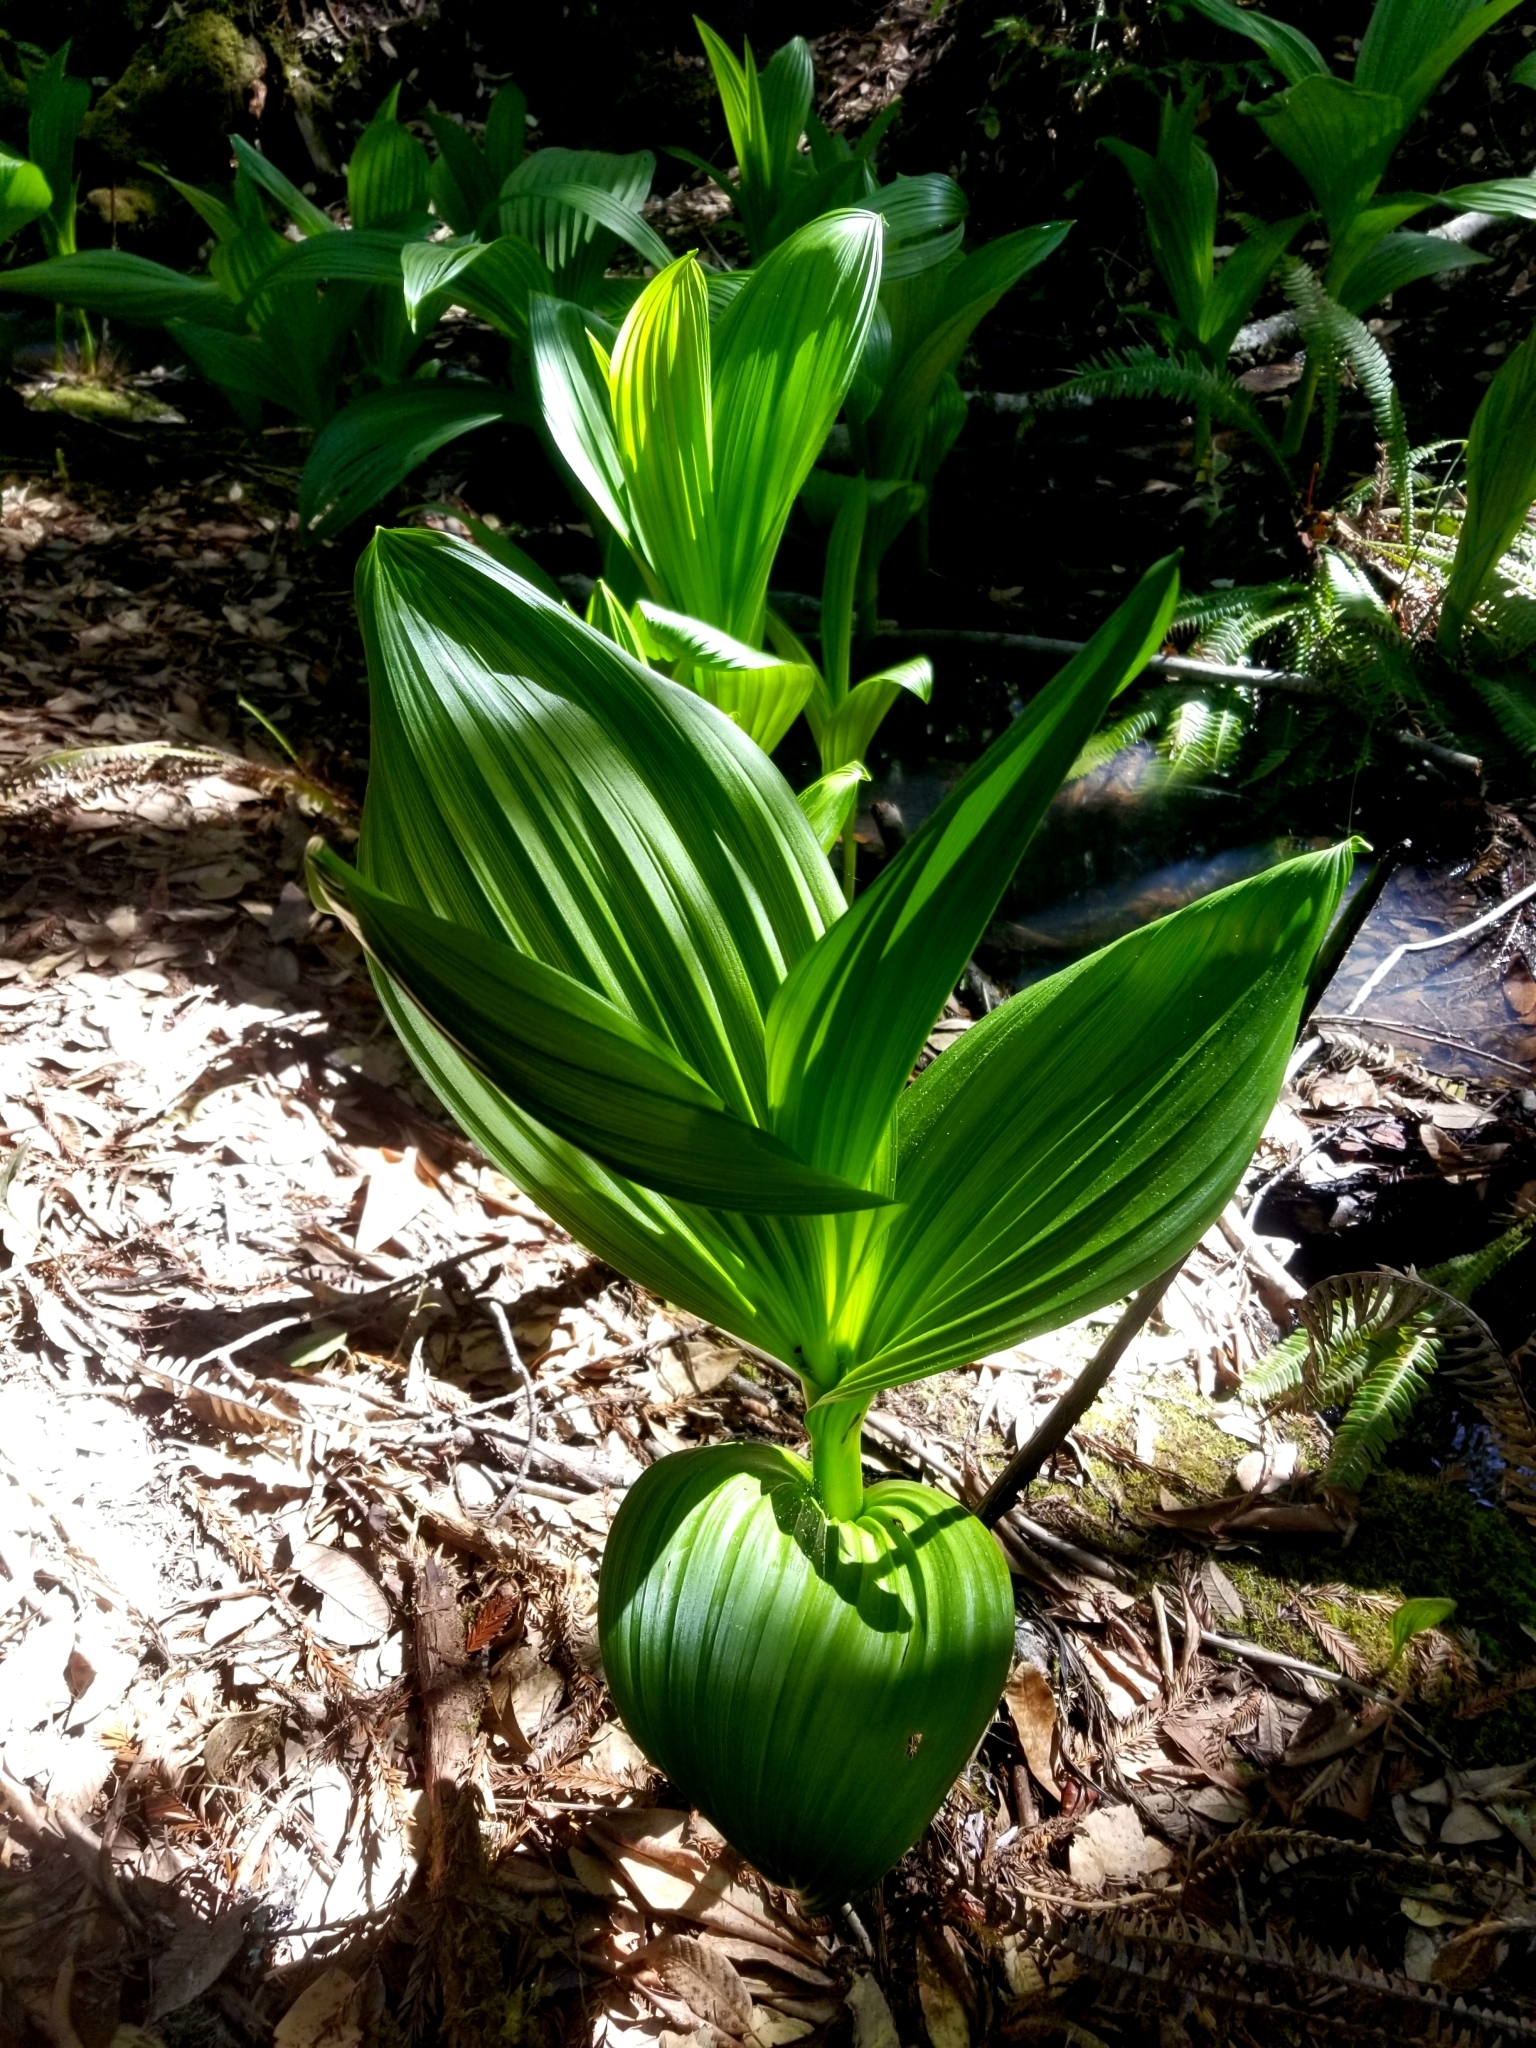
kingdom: Plantae
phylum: Tracheophyta
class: Liliopsida
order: Liliales
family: Melanthiaceae
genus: Veratrum
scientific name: Veratrum fimbriatum
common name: Fringe false hellobore
